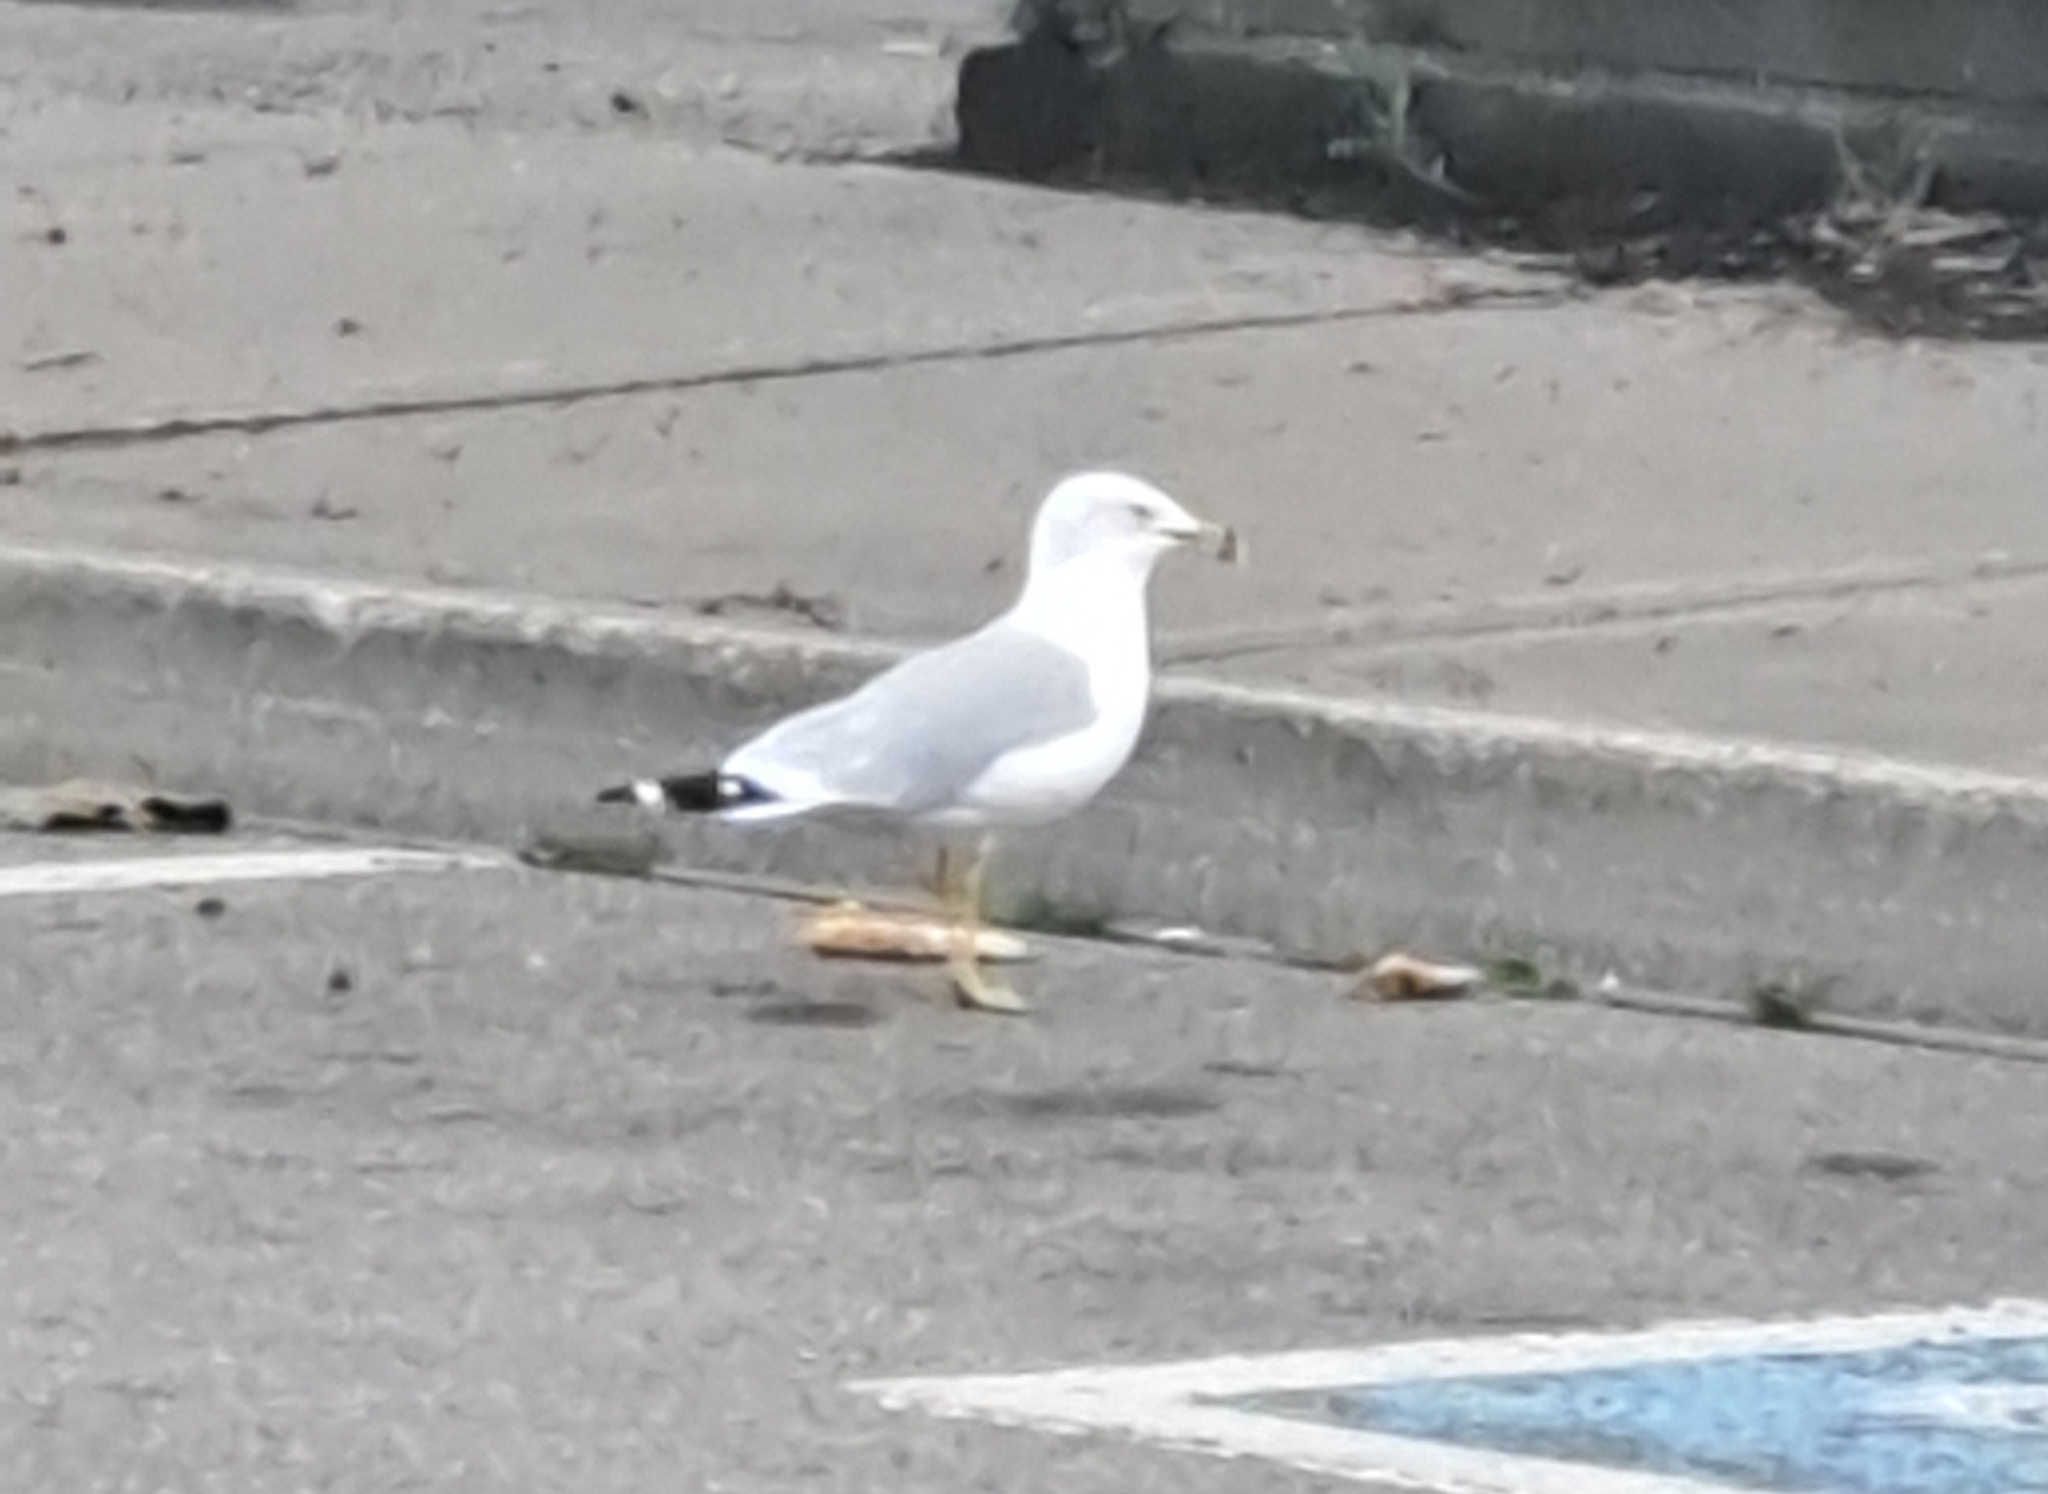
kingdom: Animalia
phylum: Chordata
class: Aves
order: Charadriiformes
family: Laridae
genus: Larus
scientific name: Larus delawarensis
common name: Ring-billed gull
